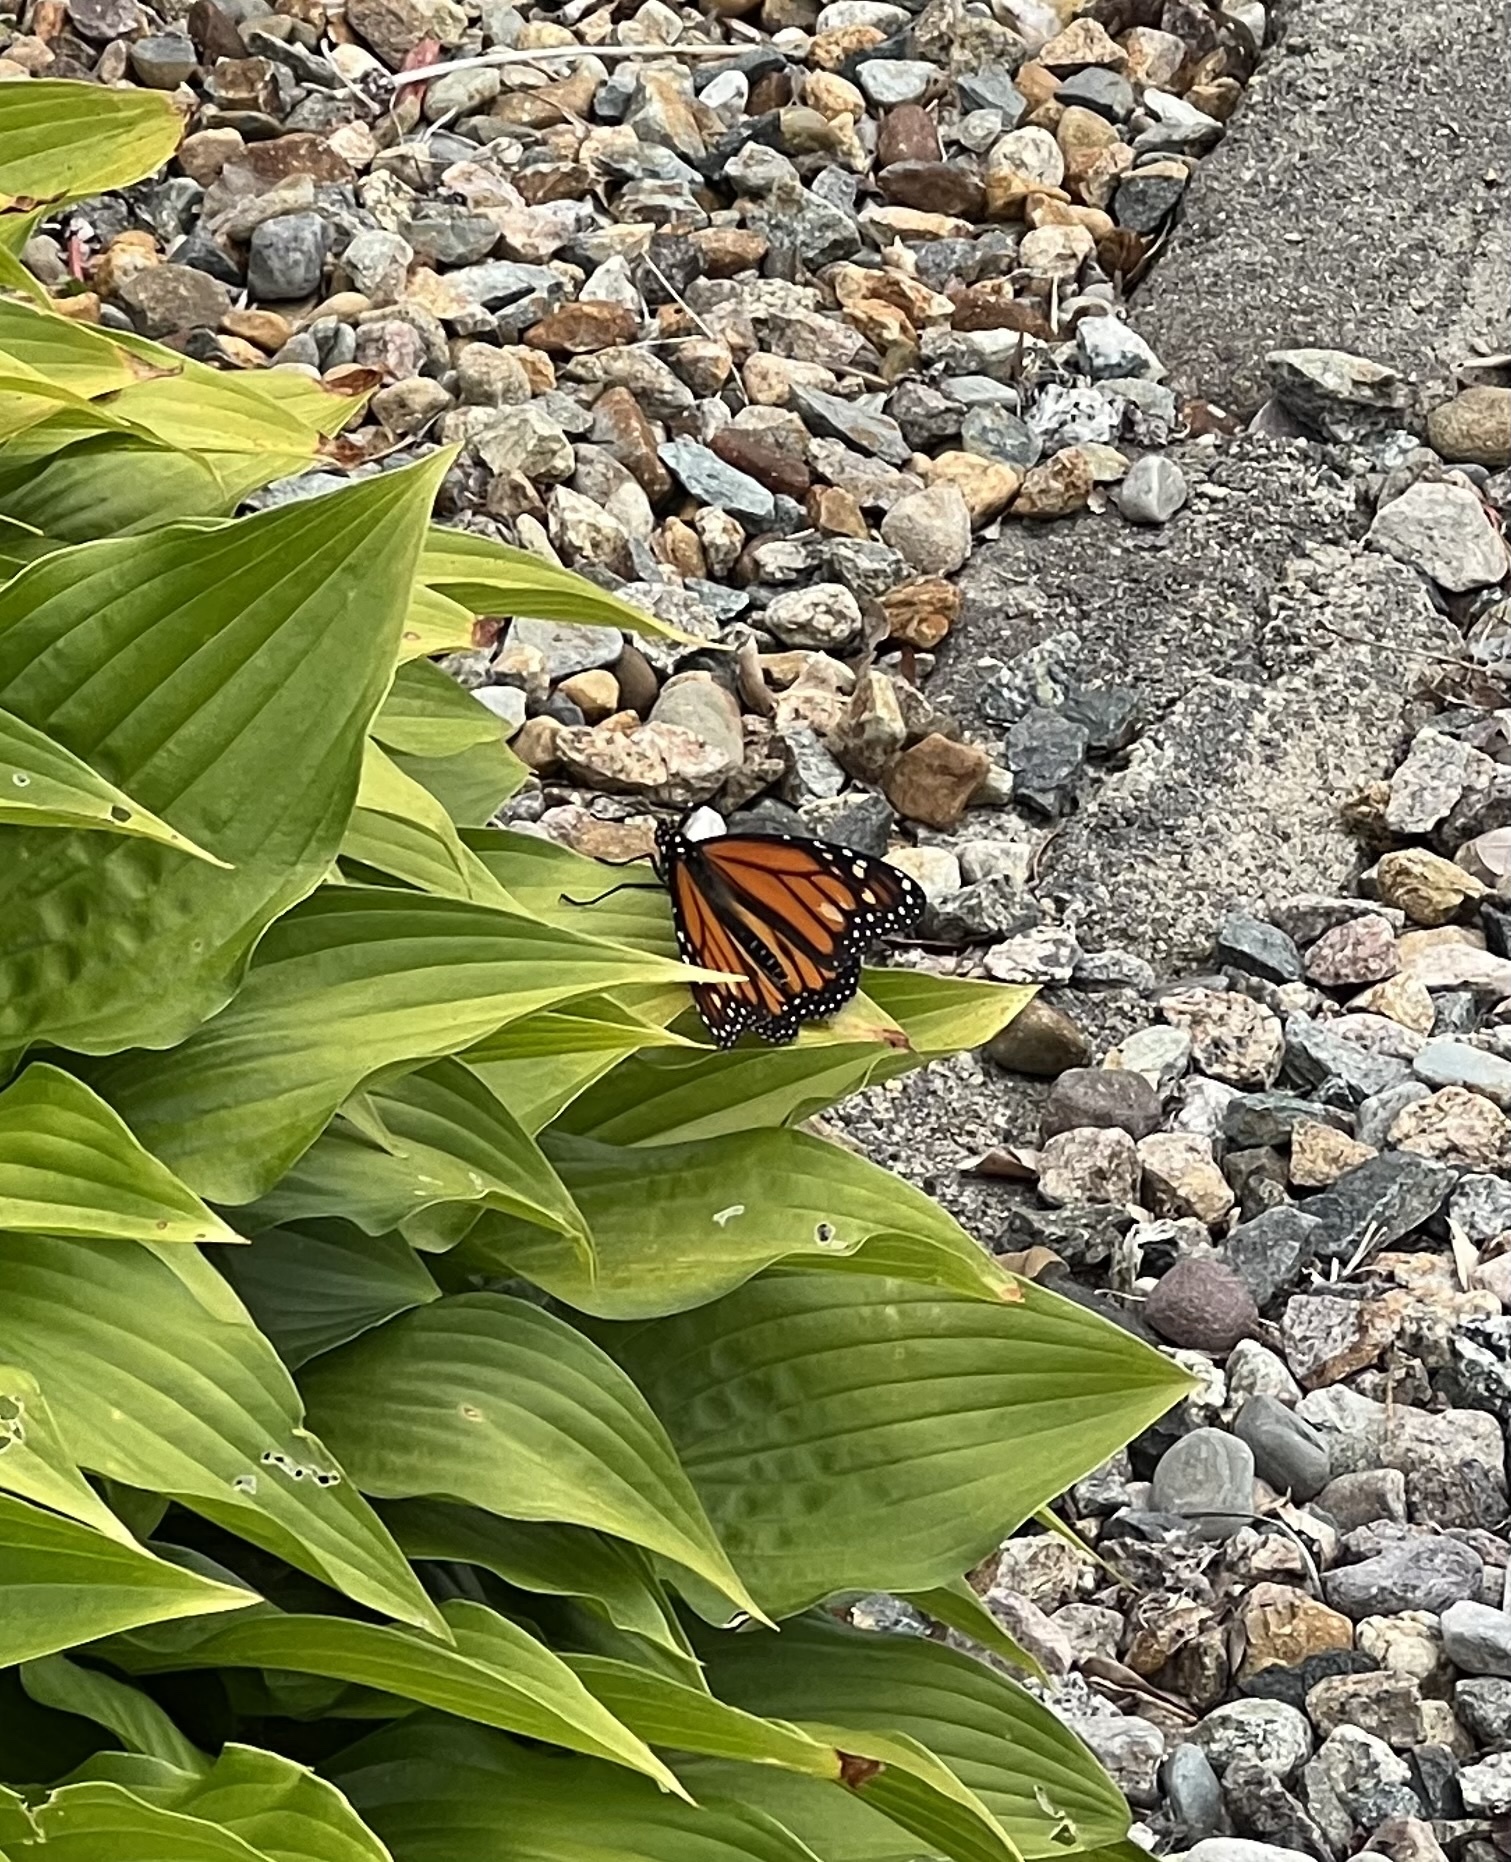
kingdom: Animalia
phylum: Arthropoda
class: Insecta
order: Lepidoptera
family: Nymphalidae
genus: Danaus
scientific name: Danaus plexippus
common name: Monarch
